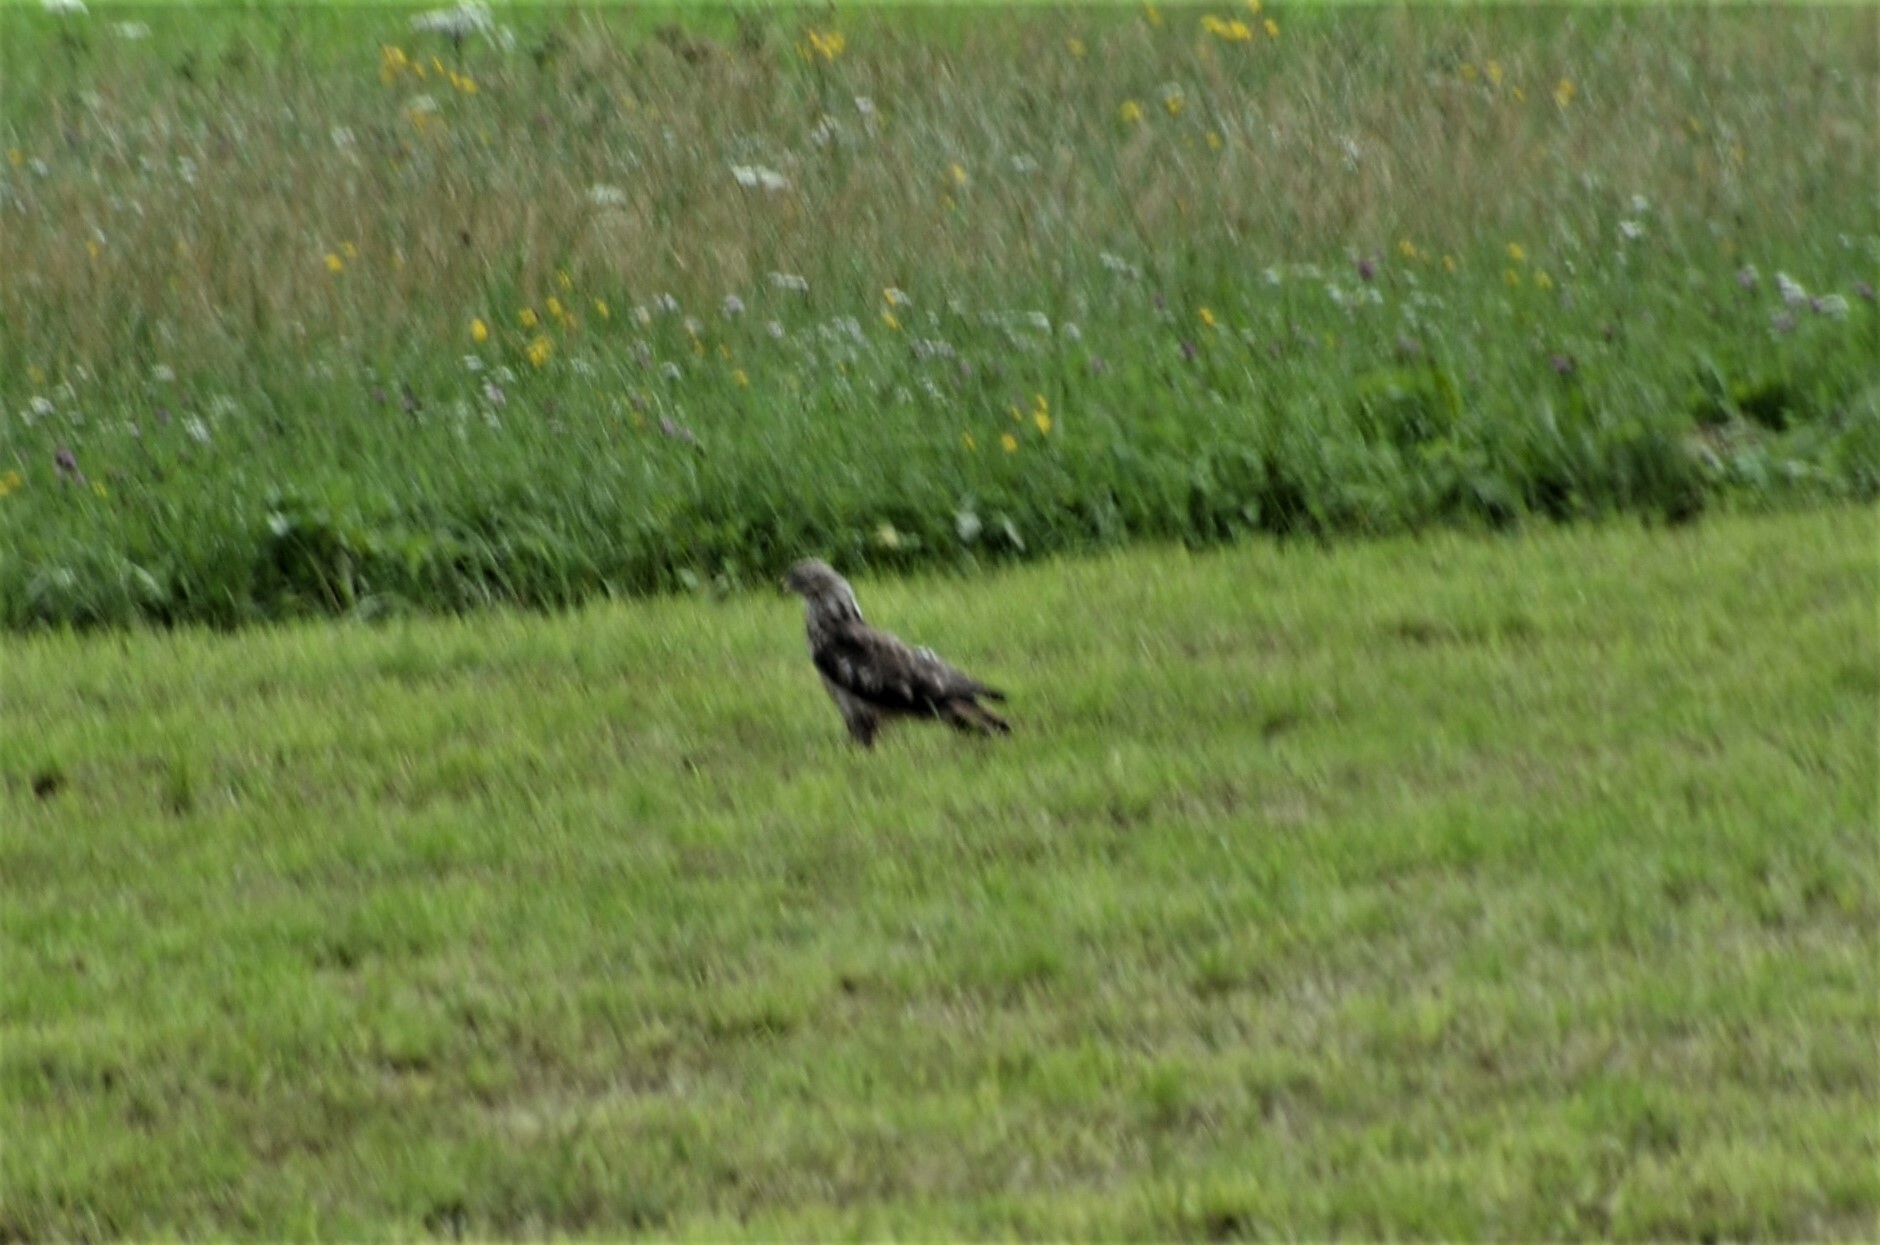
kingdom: Animalia
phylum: Chordata
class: Aves
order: Accipitriformes
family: Accipitridae
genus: Buteo
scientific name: Buteo buteo
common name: Common buzzard
